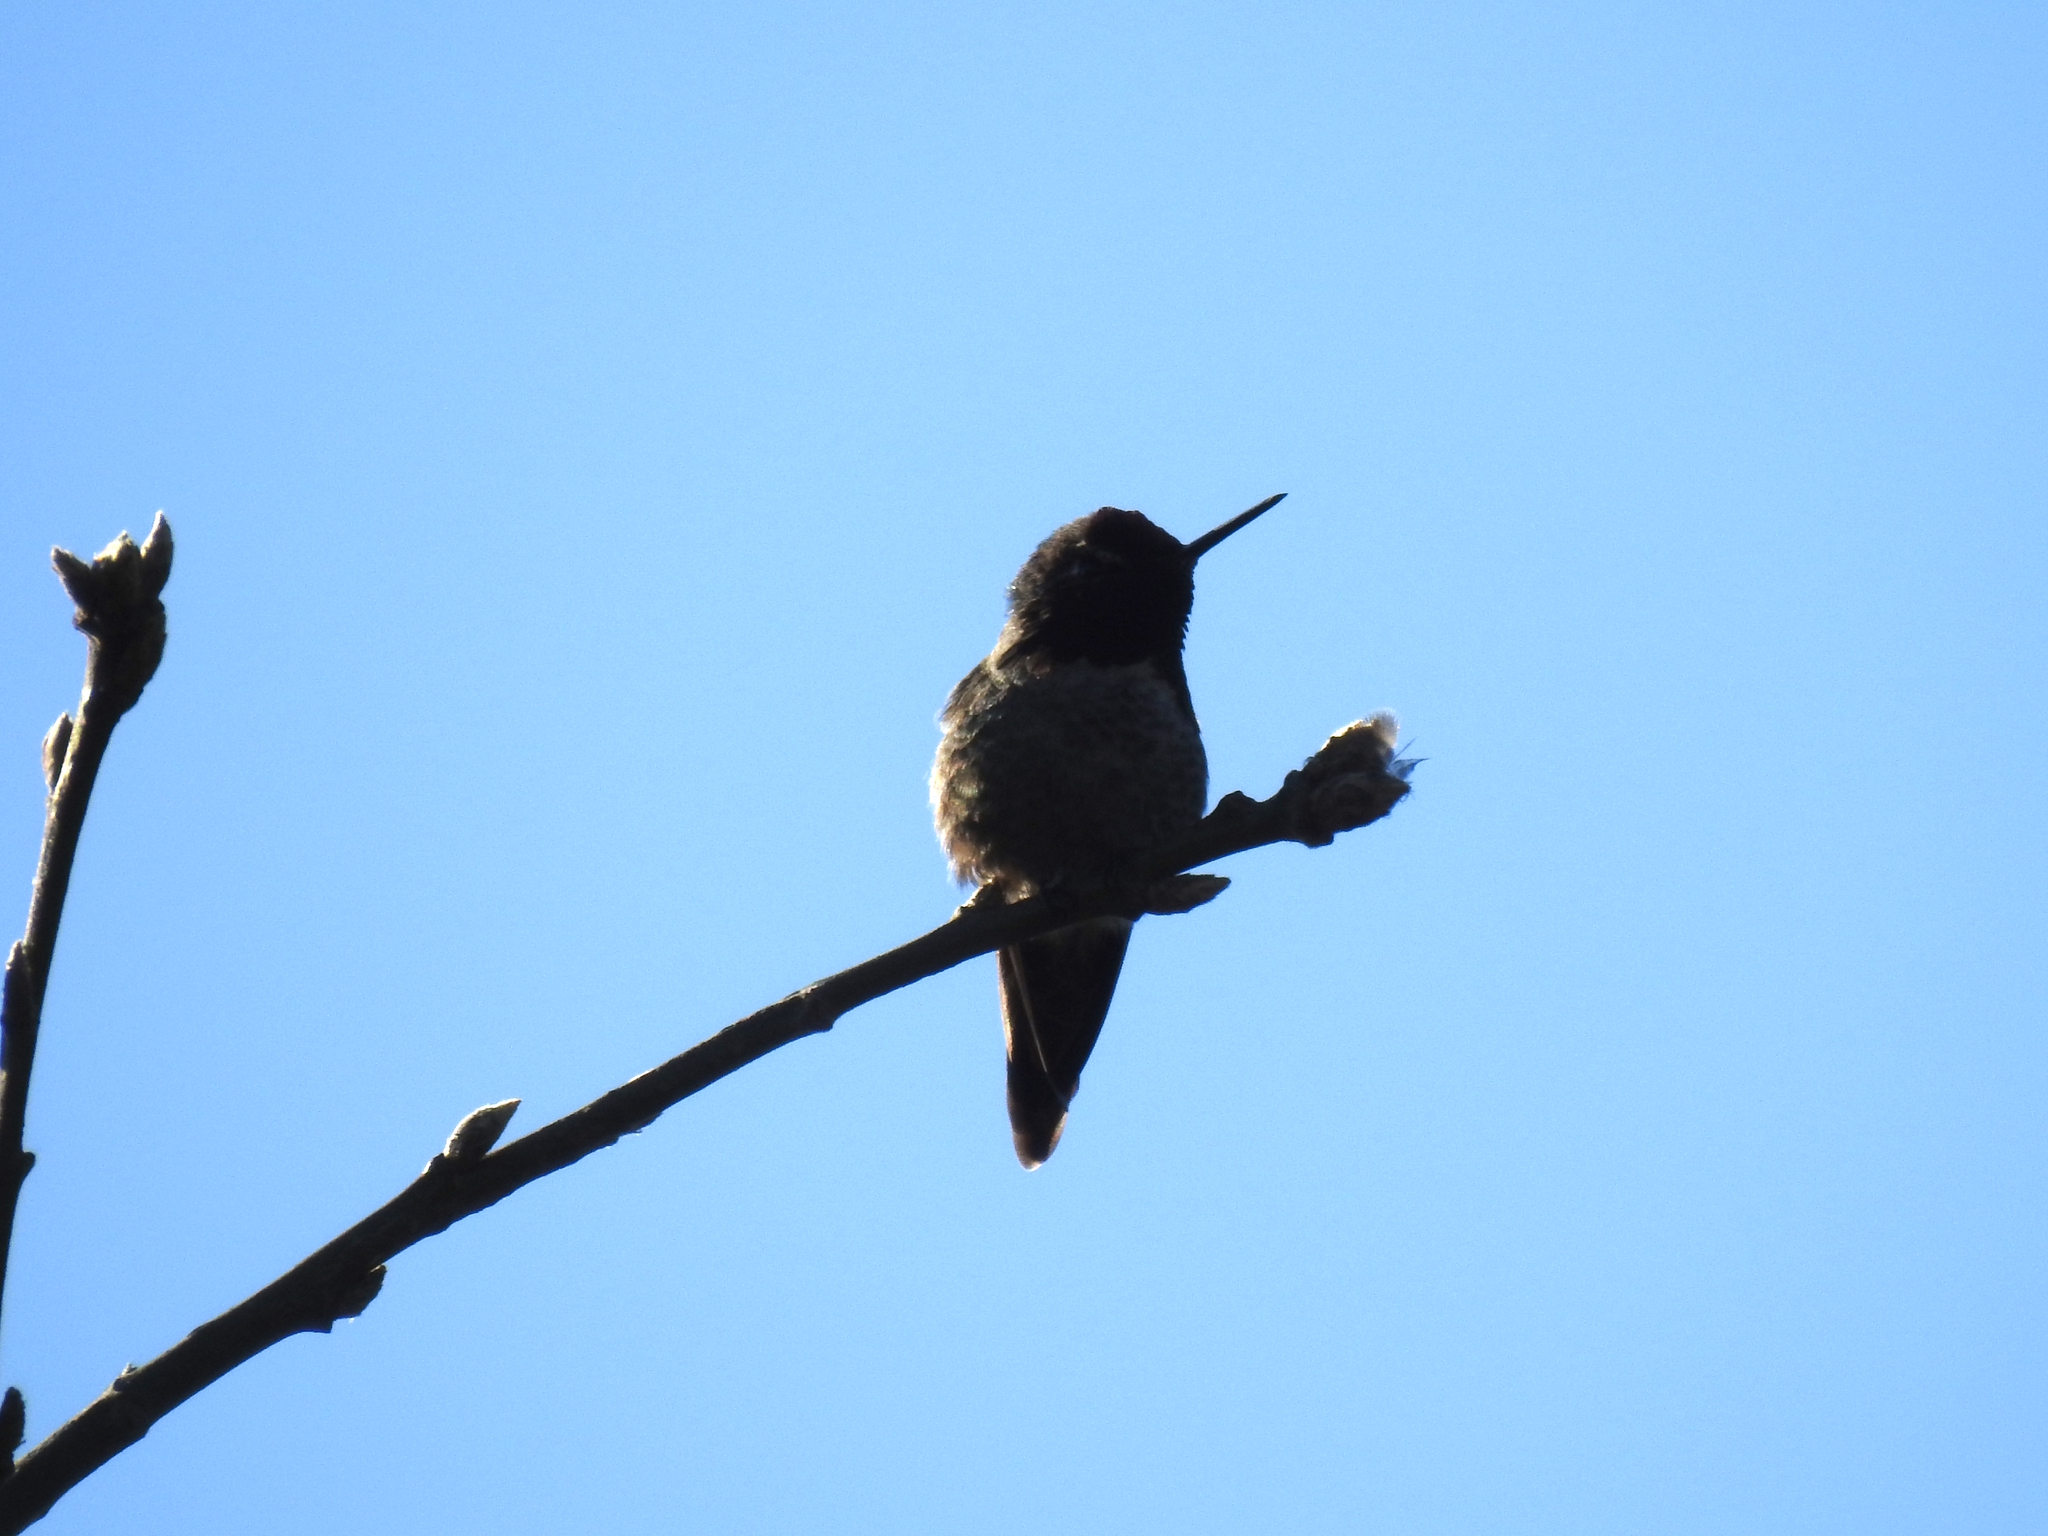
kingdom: Animalia
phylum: Chordata
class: Aves
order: Apodiformes
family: Trochilidae
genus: Calypte
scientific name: Calypte anna
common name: Anna's hummingbird
